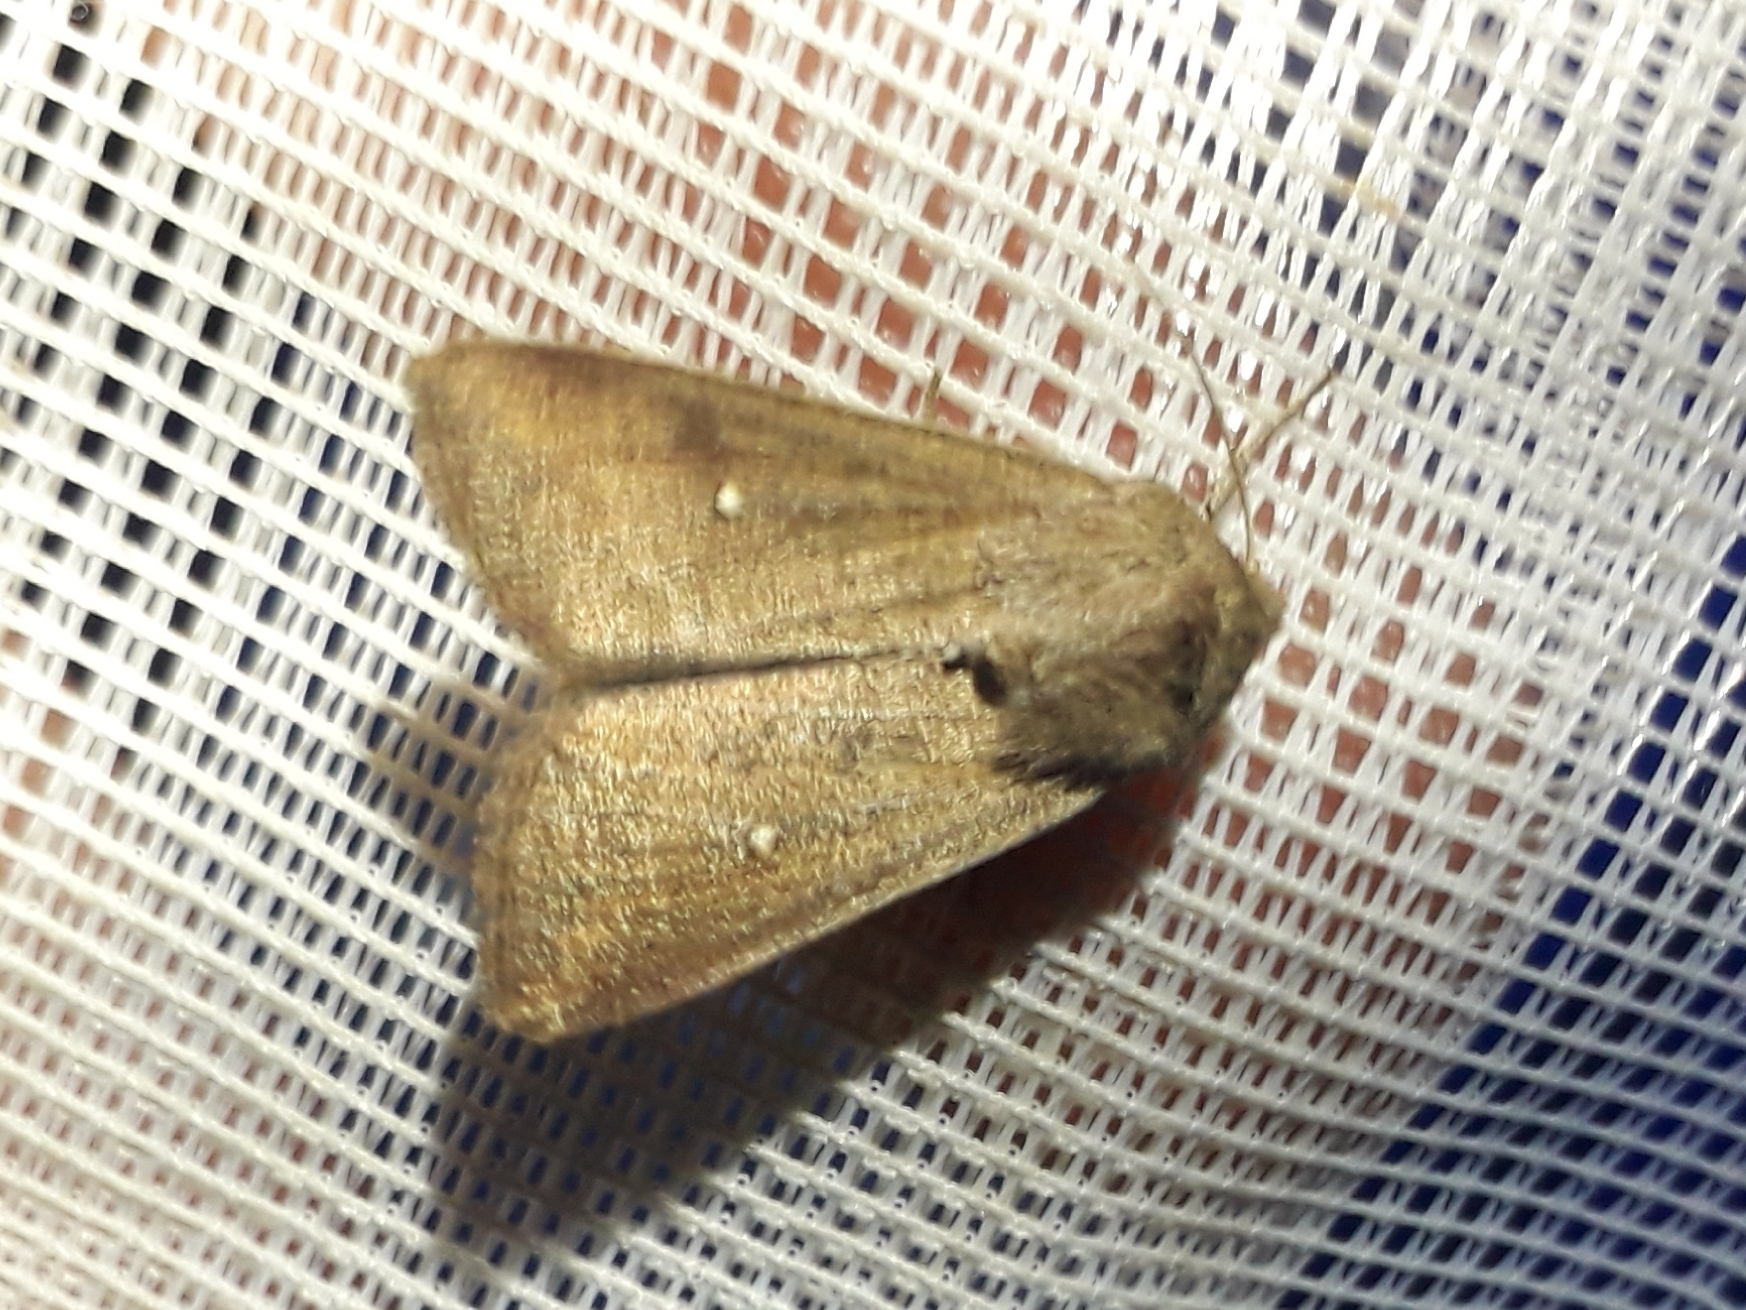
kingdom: Animalia
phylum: Arthropoda
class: Insecta
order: Lepidoptera
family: Noctuidae
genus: Mythimna
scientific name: Mythimna albipuncta
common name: White-point
